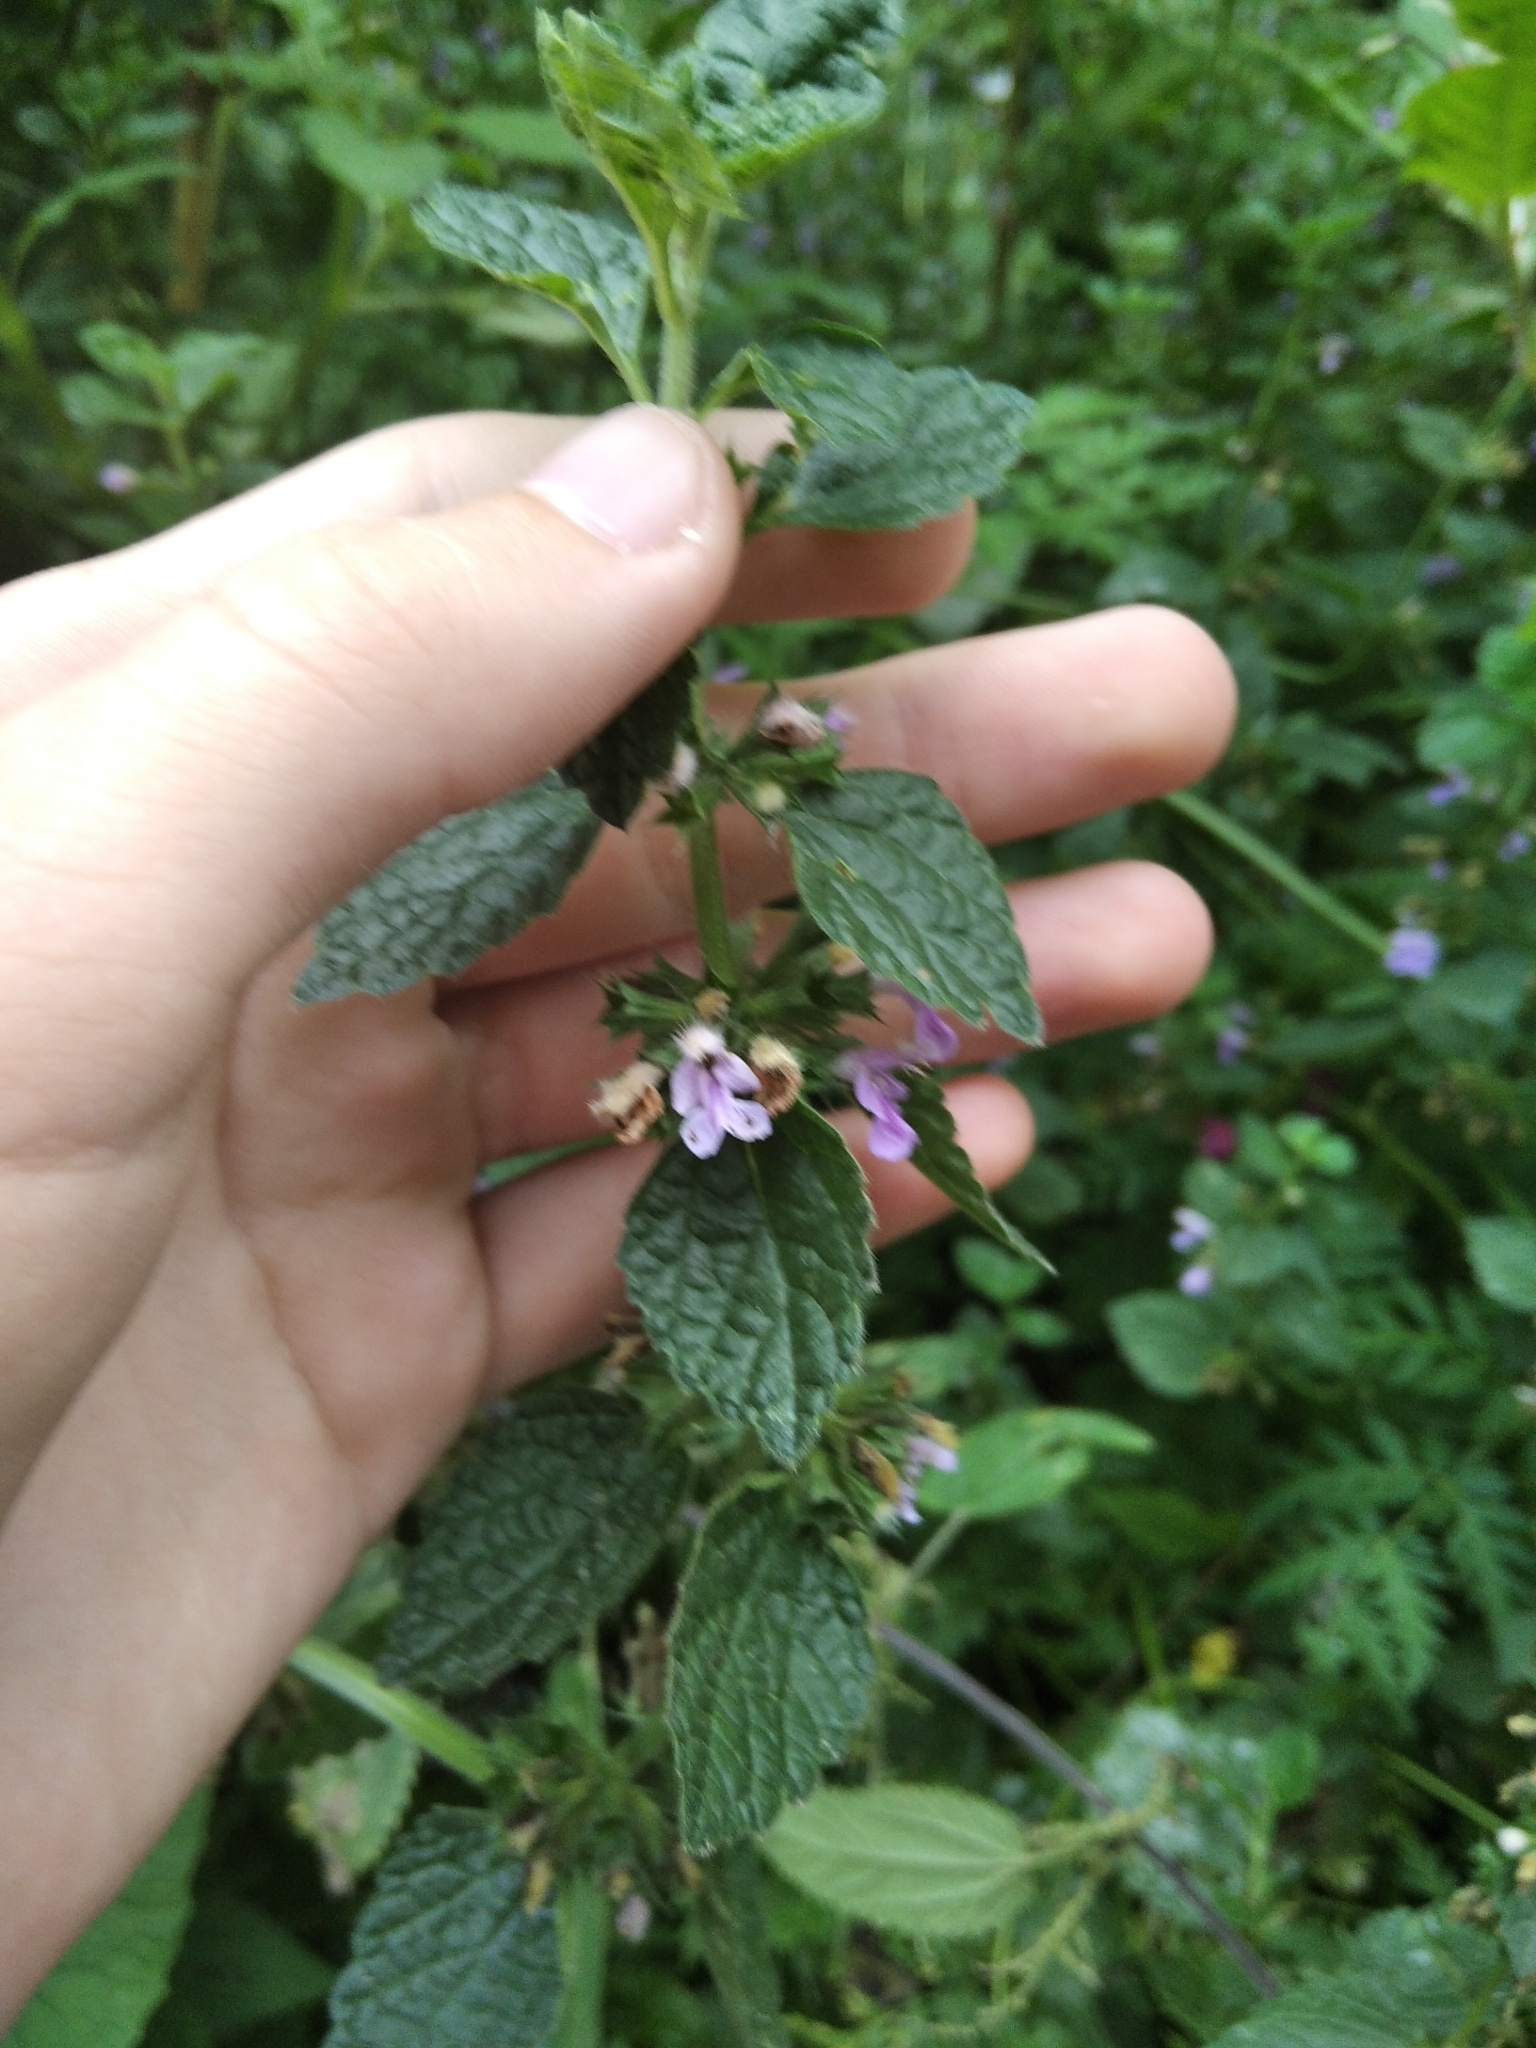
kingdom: Plantae
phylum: Tracheophyta
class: Magnoliopsida
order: Lamiales
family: Lamiaceae
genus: Ballota
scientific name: Ballota nigra
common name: Black horehound
